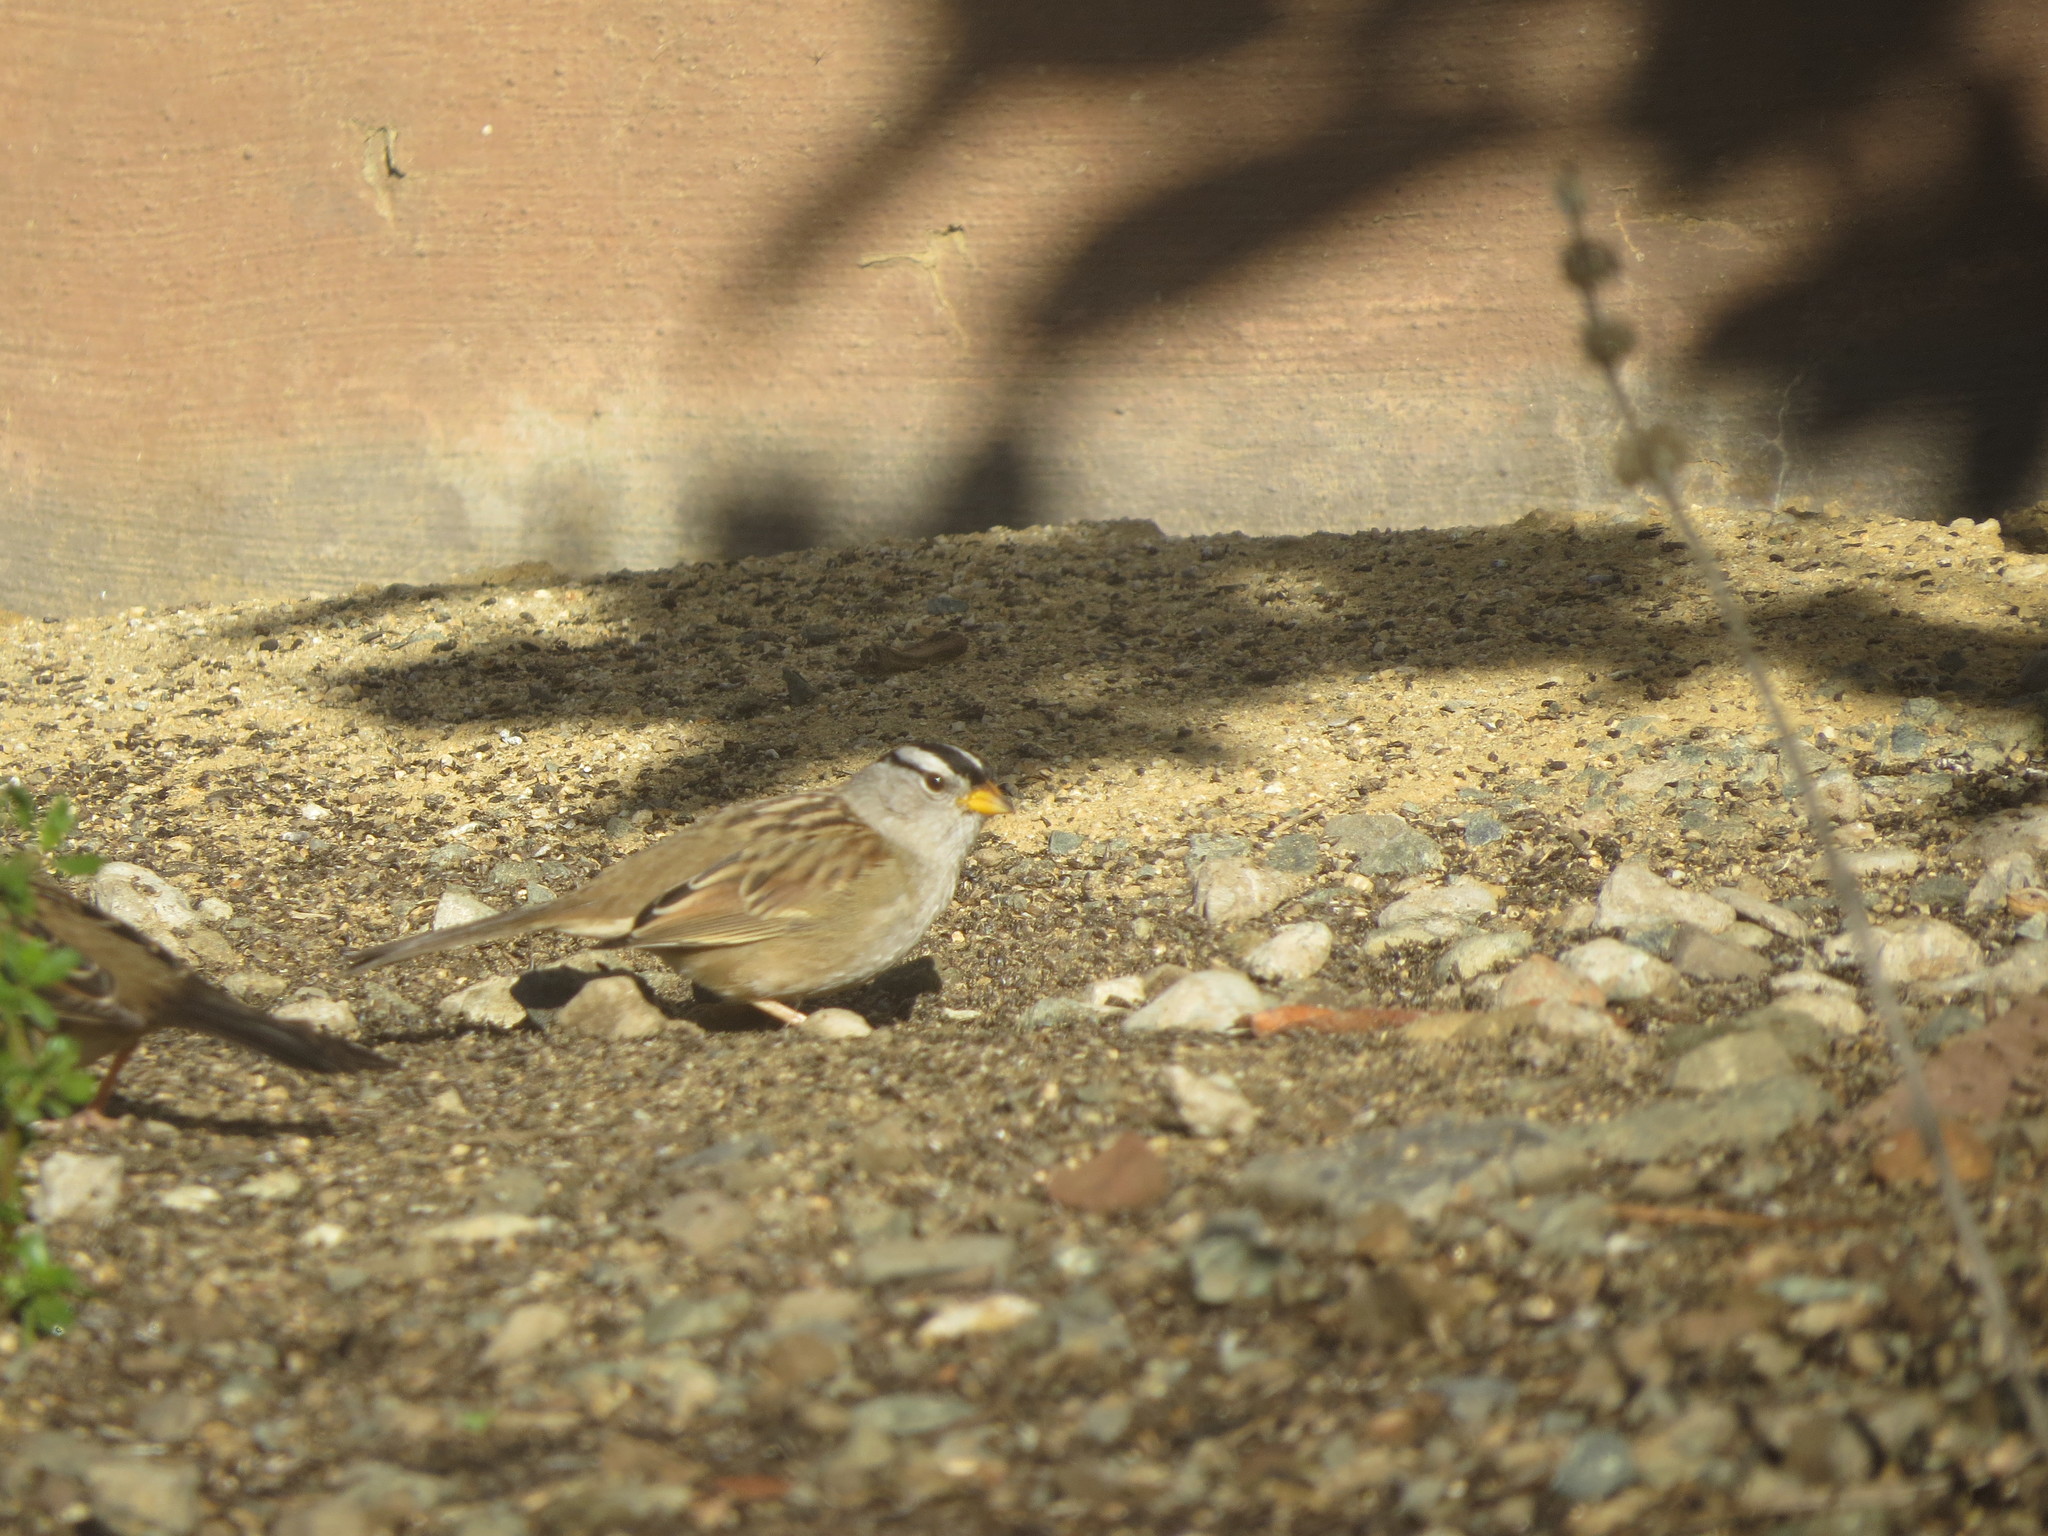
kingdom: Animalia
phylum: Chordata
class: Aves
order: Passeriformes
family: Passerellidae
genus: Zonotrichia
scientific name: Zonotrichia leucophrys
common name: White-crowned sparrow
